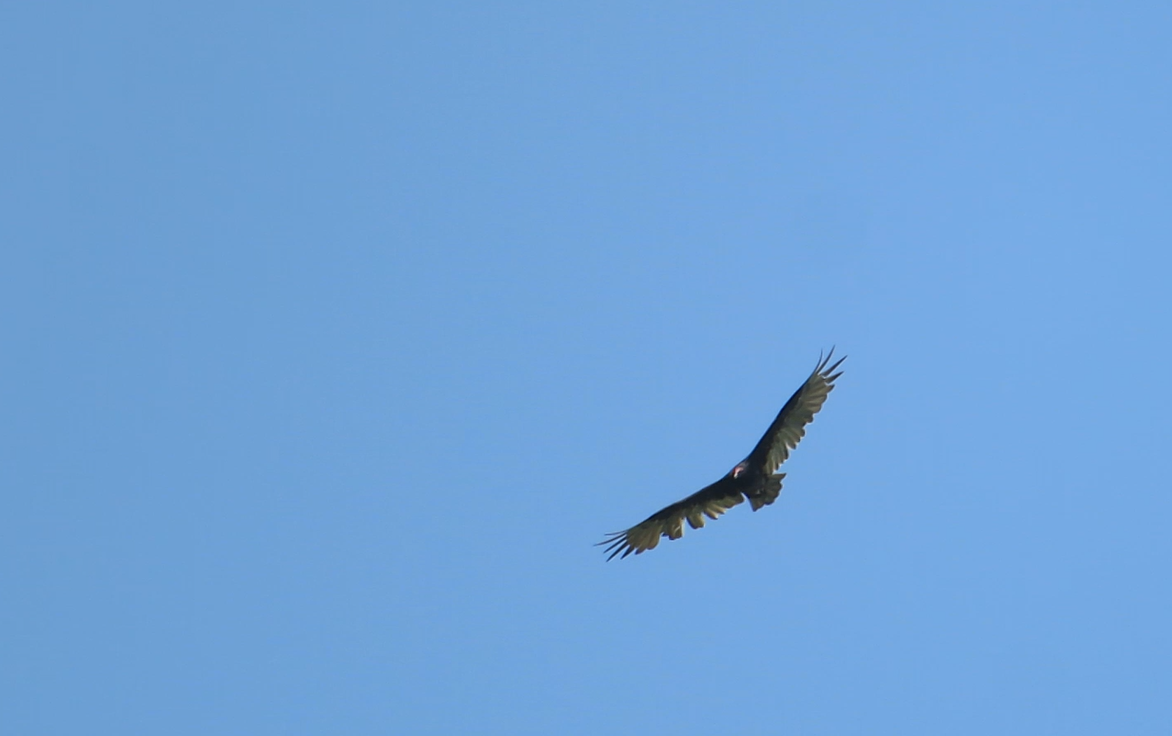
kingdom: Animalia
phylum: Chordata
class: Aves
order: Accipitriformes
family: Cathartidae
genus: Cathartes
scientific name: Cathartes aura
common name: Turkey vulture
